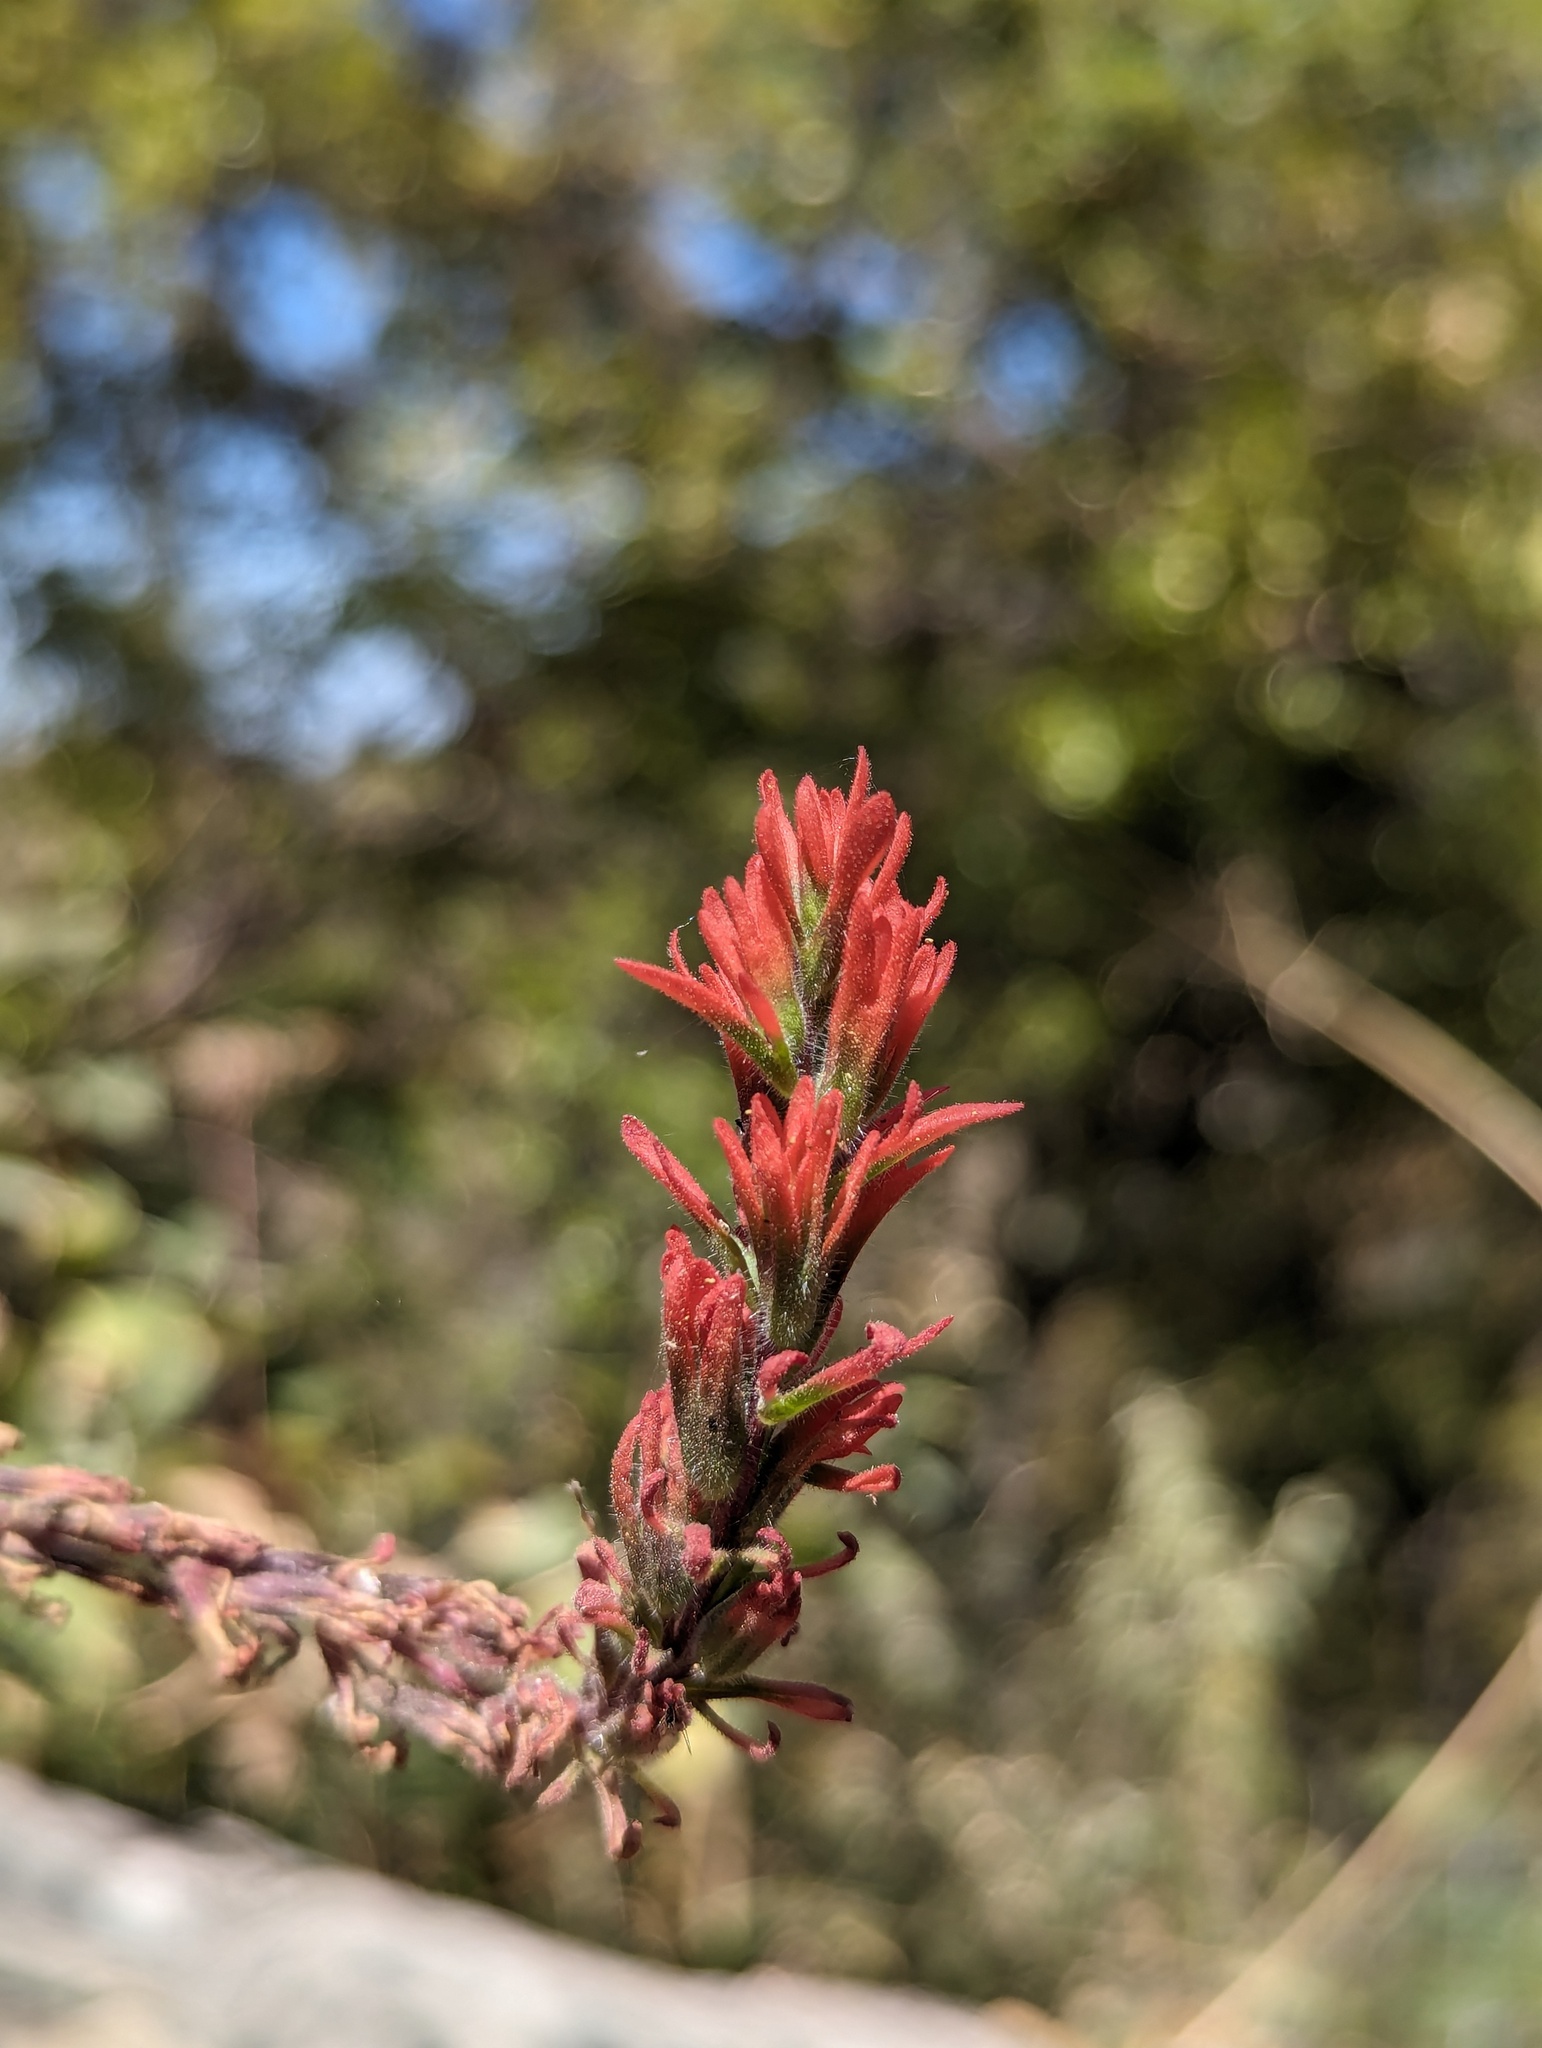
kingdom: Plantae
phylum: Tracheophyta
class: Magnoliopsida
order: Lamiales
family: Orobanchaceae
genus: Castilleja
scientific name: Castilleja bryantii
